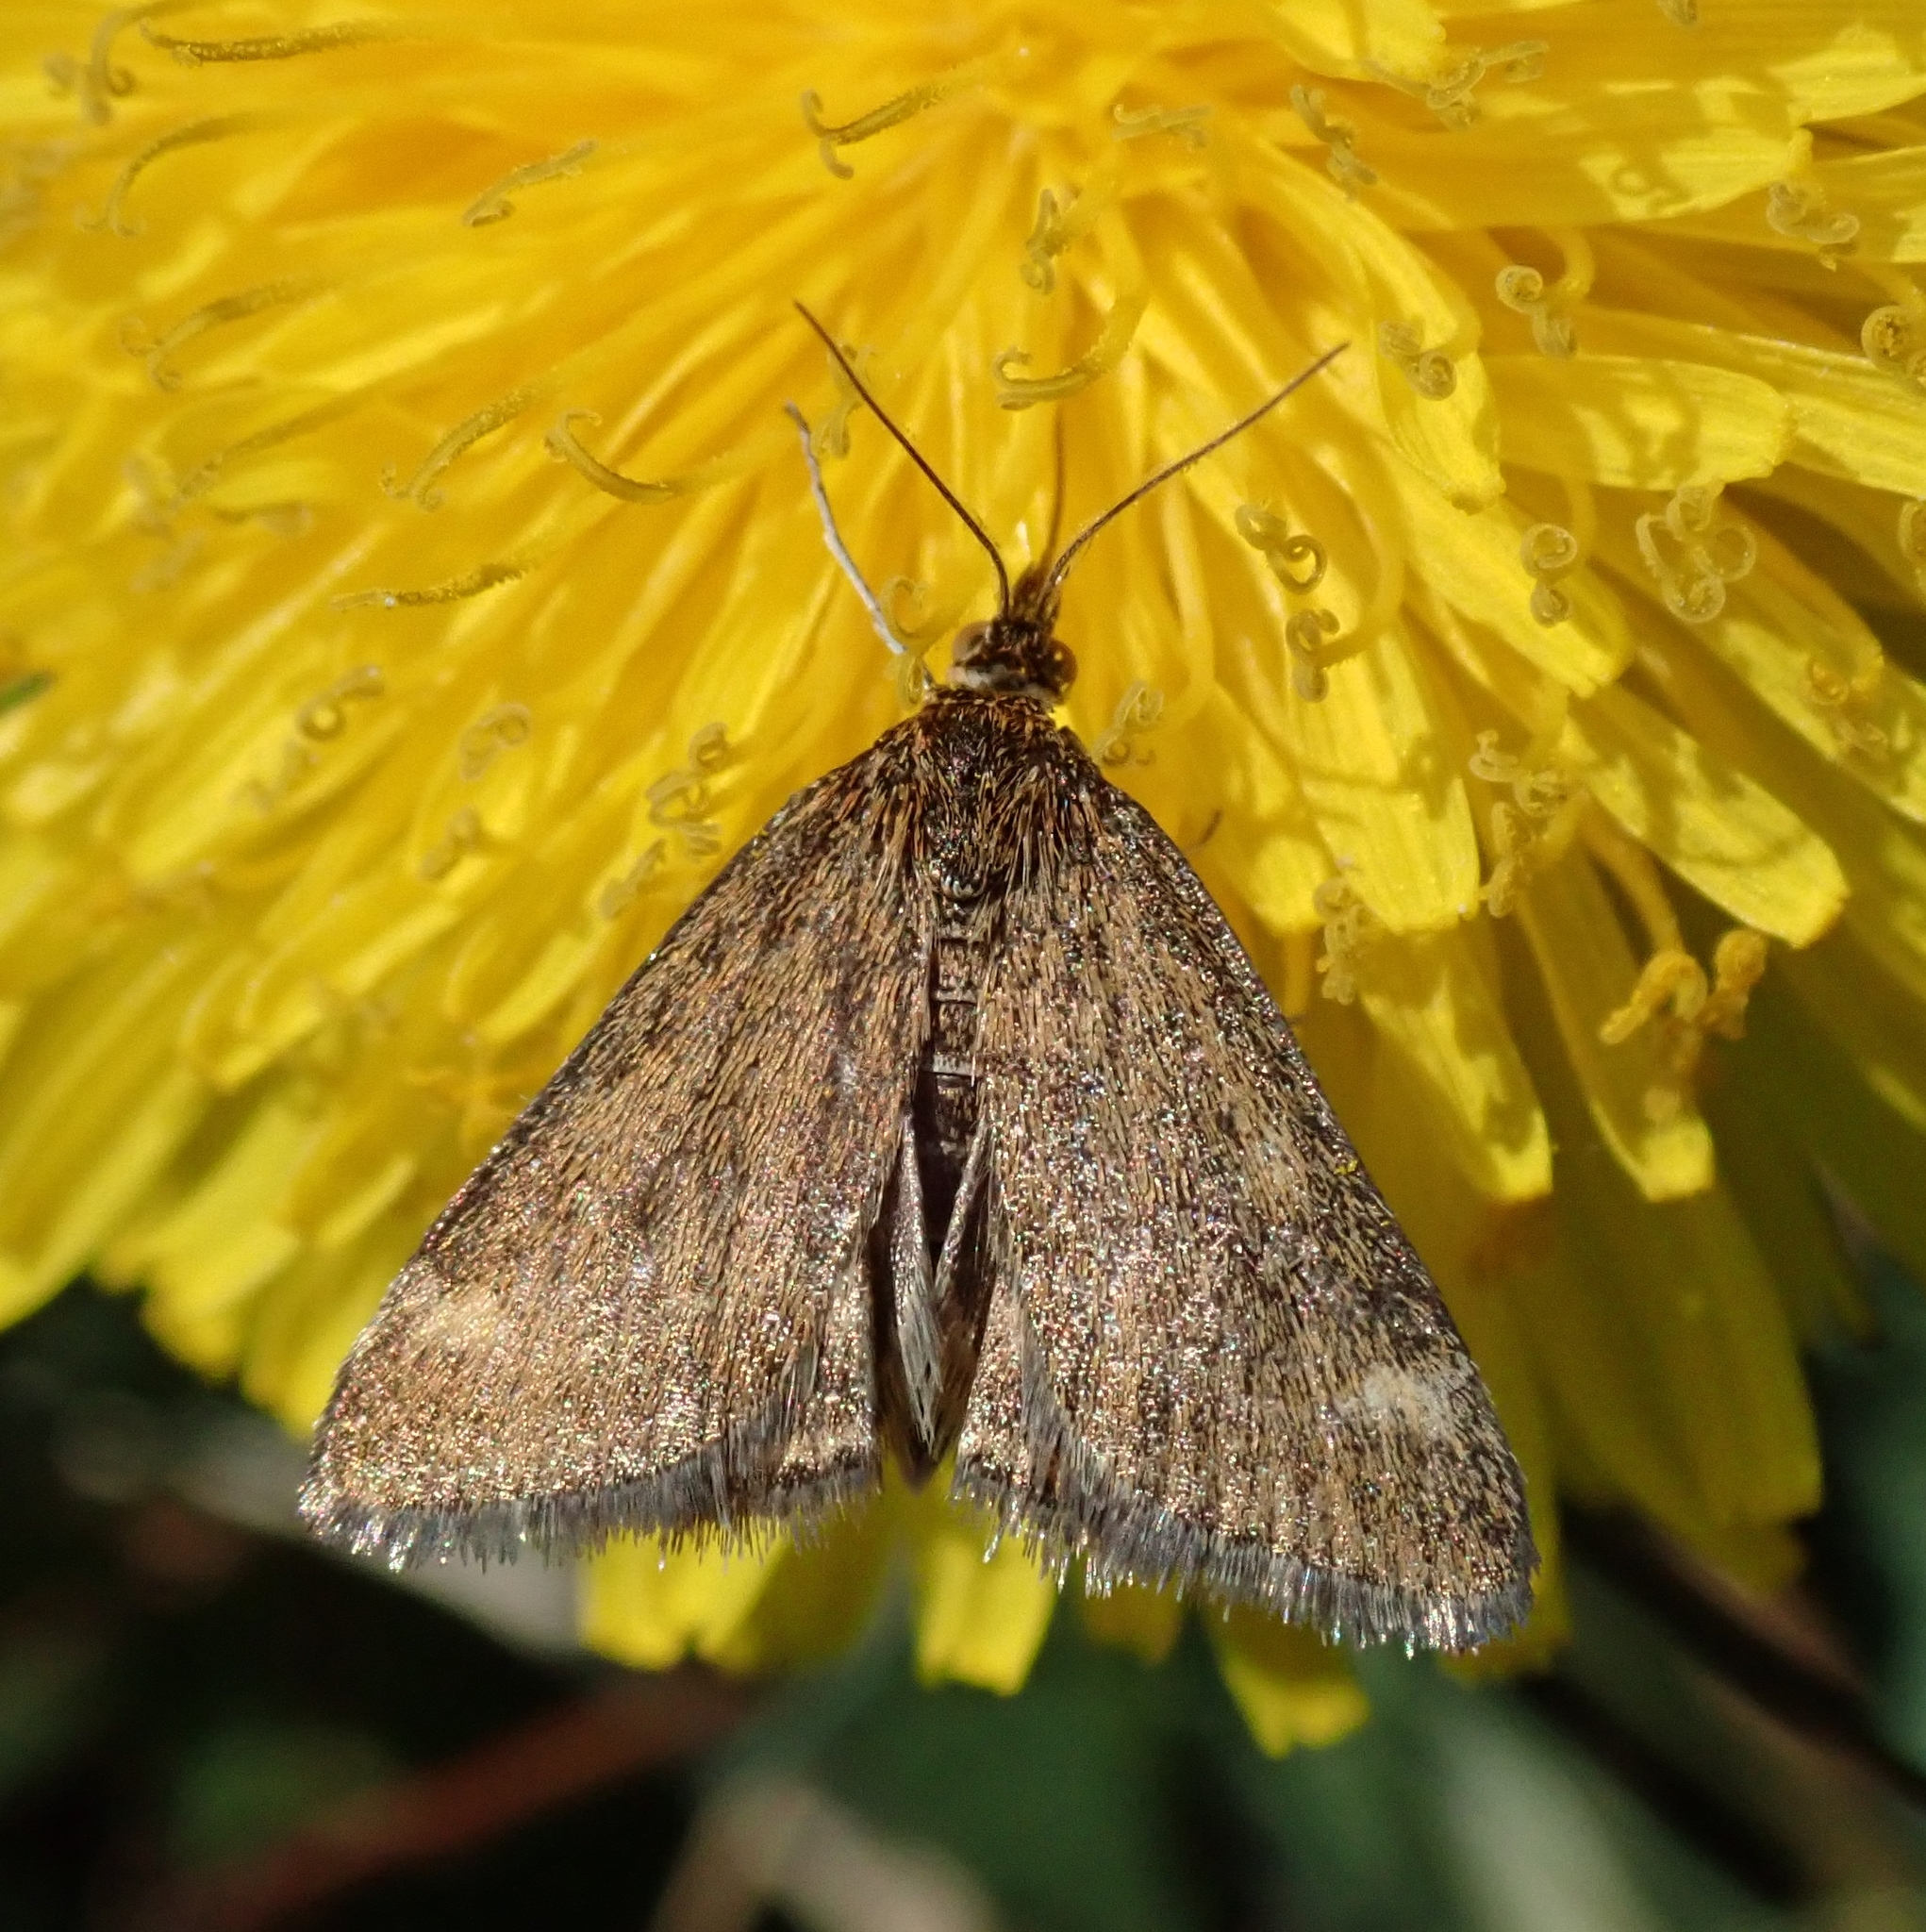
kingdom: Animalia
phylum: Arthropoda
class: Insecta
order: Lepidoptera
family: Crambidae
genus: Pyrausta
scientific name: Pyrausta despicata
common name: Straw-barred pearl
